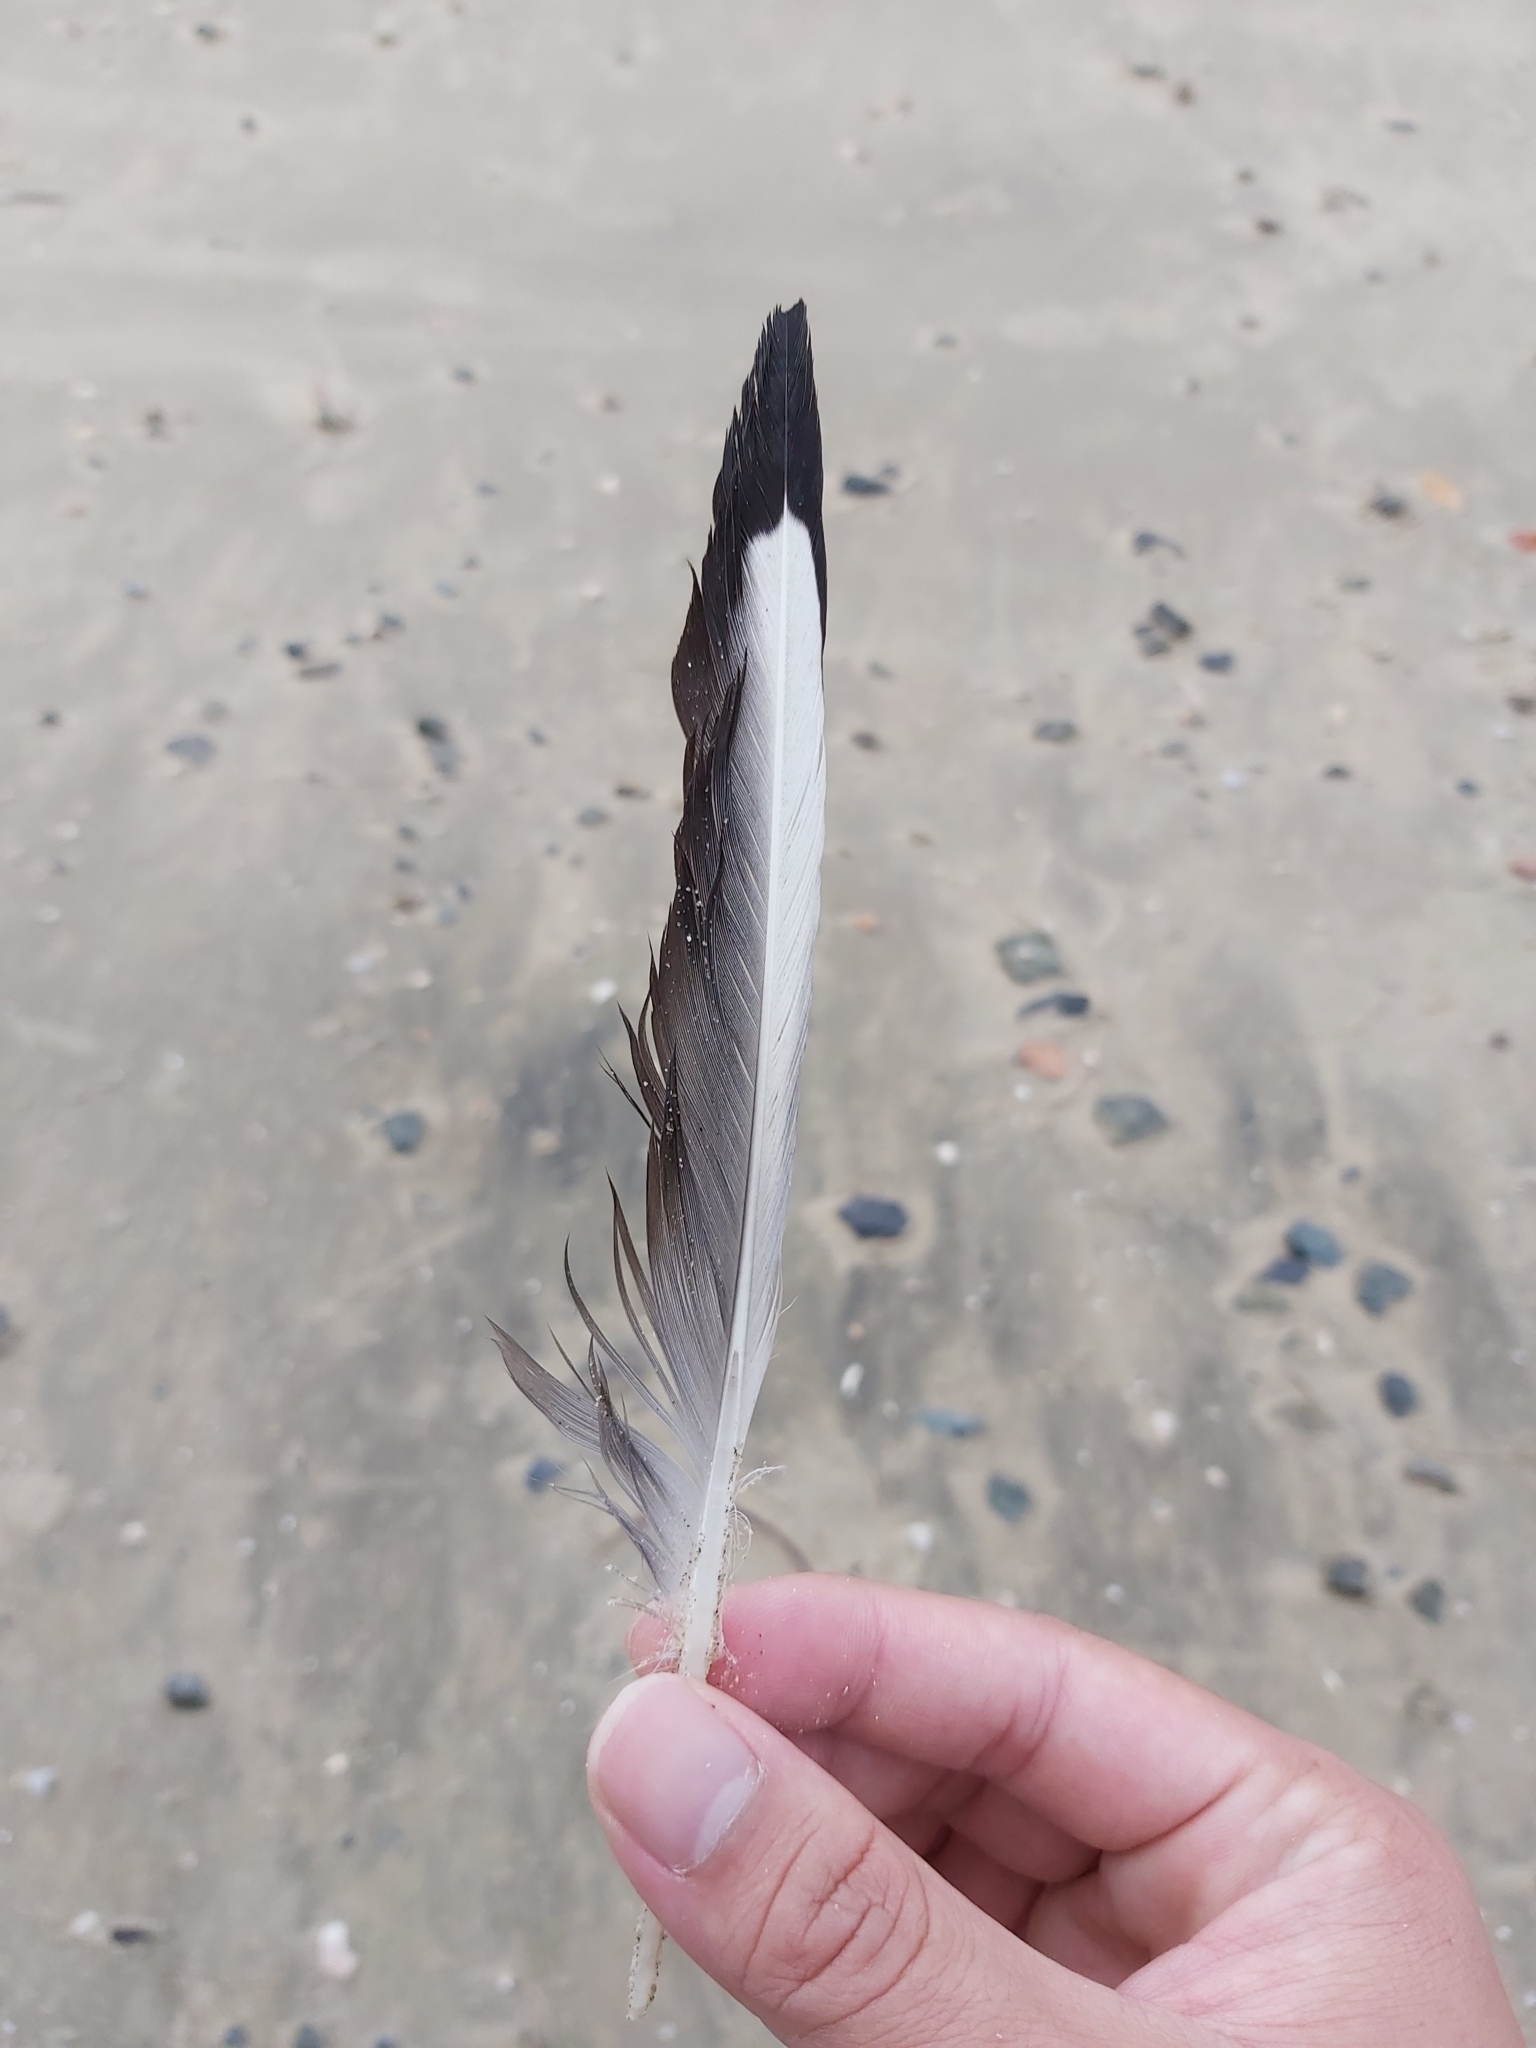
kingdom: Animalia
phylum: Chordata
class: Aves
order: Charadriiformes
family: Laridae
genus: Chroicocephalus
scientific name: Chroicocephalus novaehollandiae
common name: Silver gull
